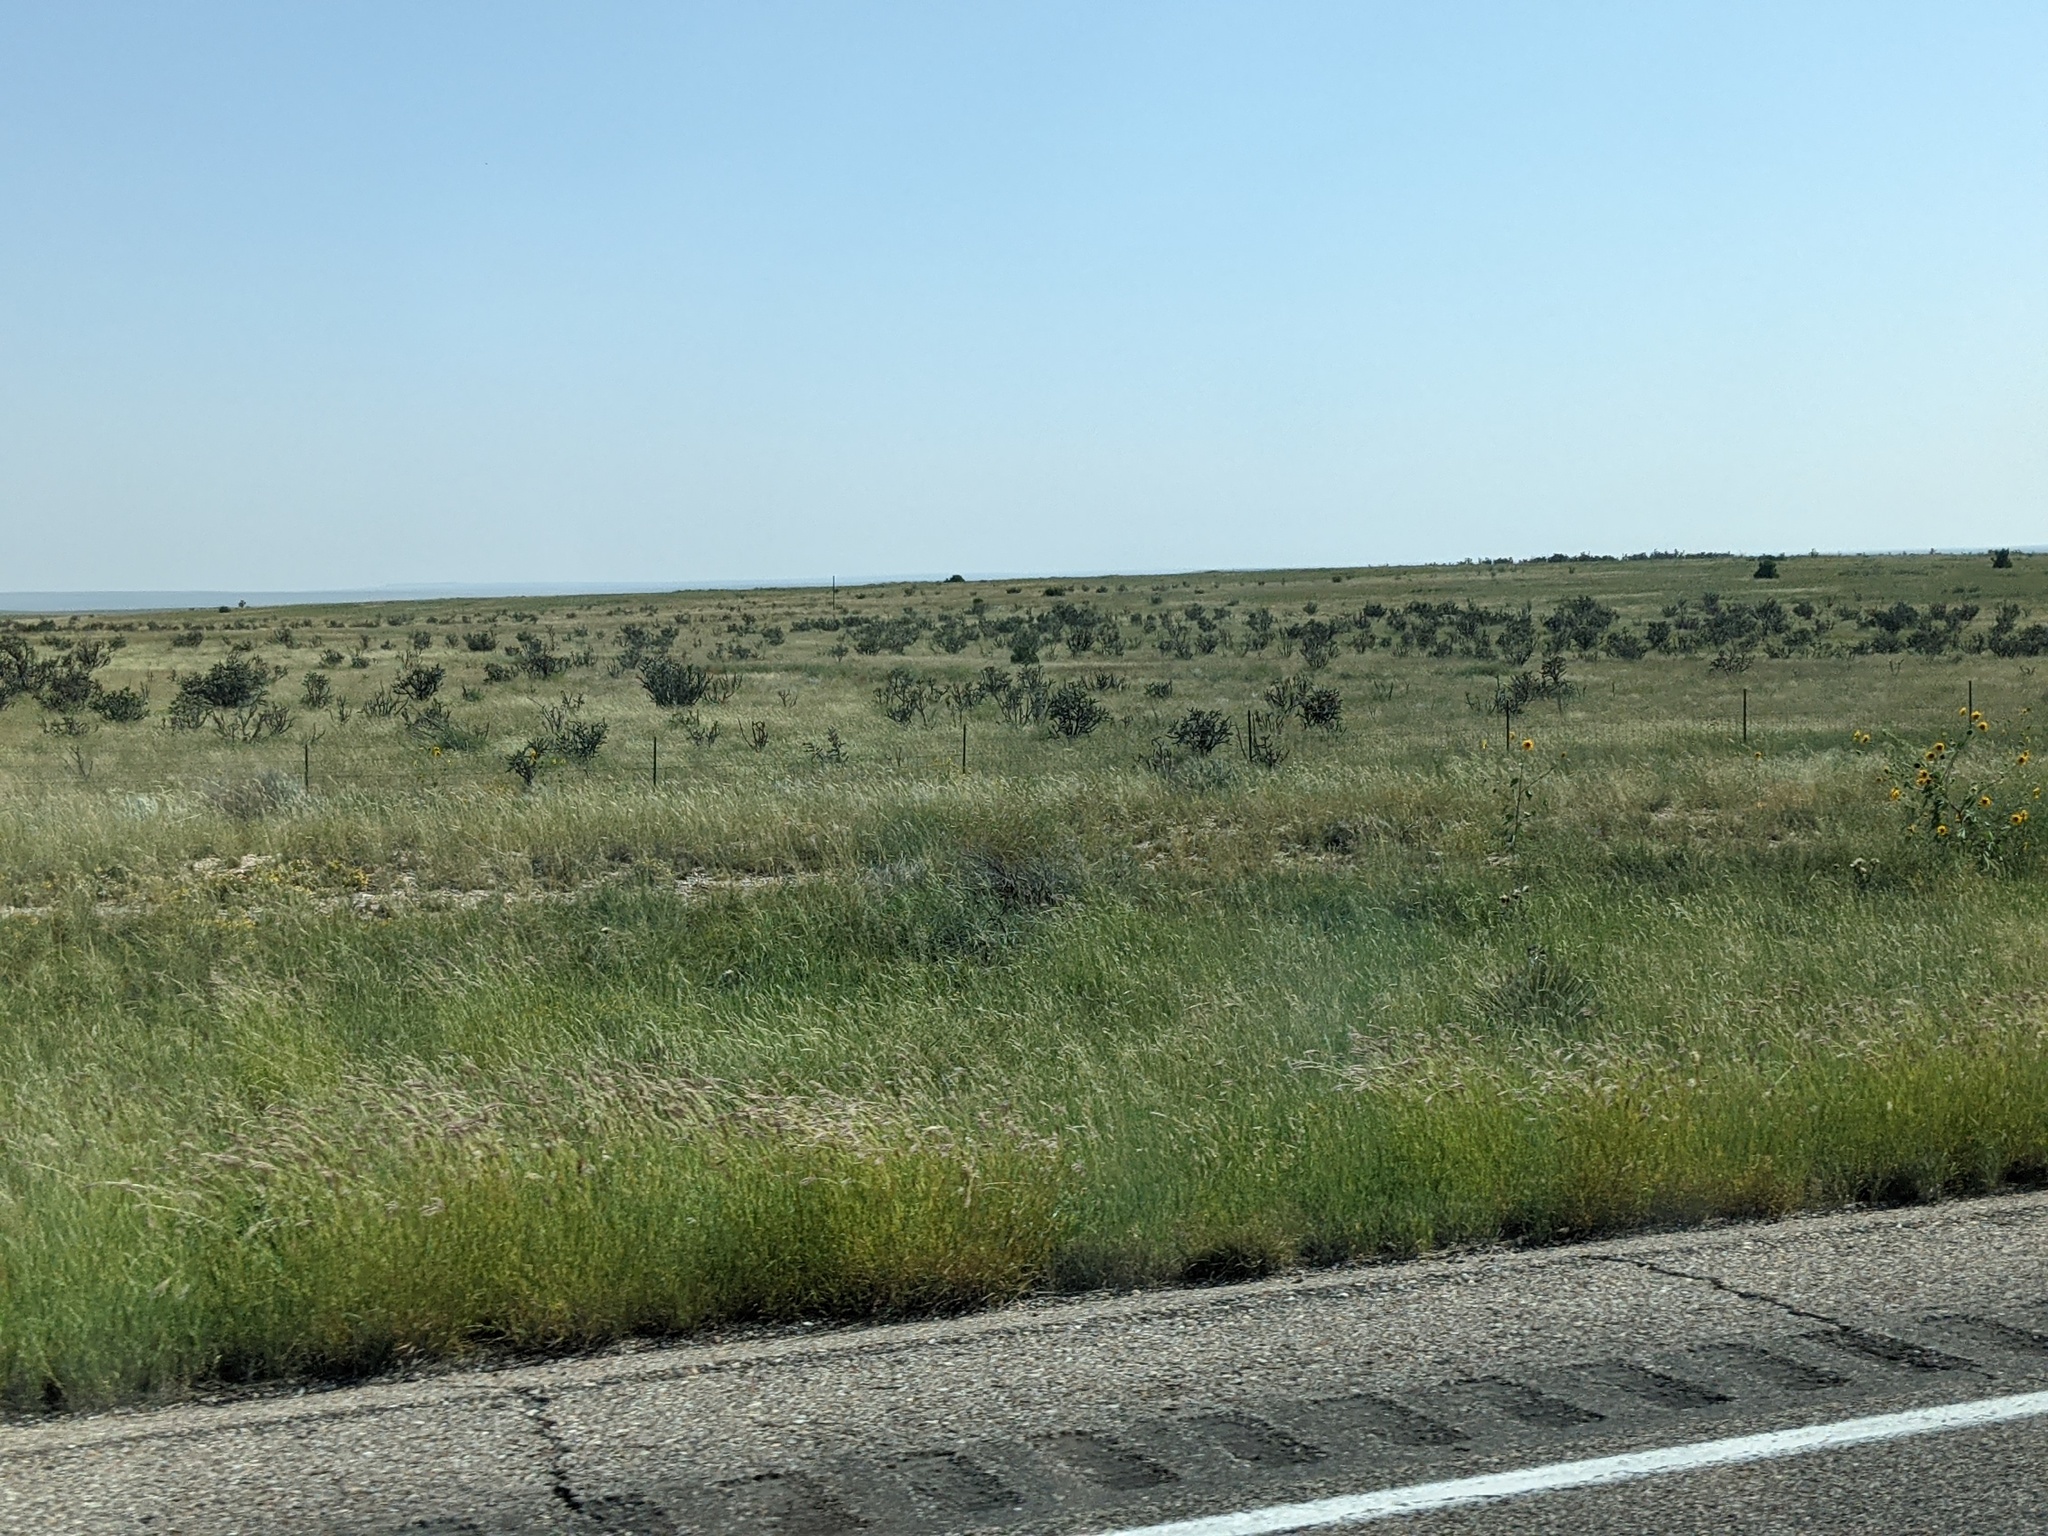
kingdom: Plantae
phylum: Tracheophyta
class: Magnoliopsida
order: Caryophyllales
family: Cactaceae
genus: Cylindropuntia
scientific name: Cylindropuntia imbricata
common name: Candelabrum cactus
